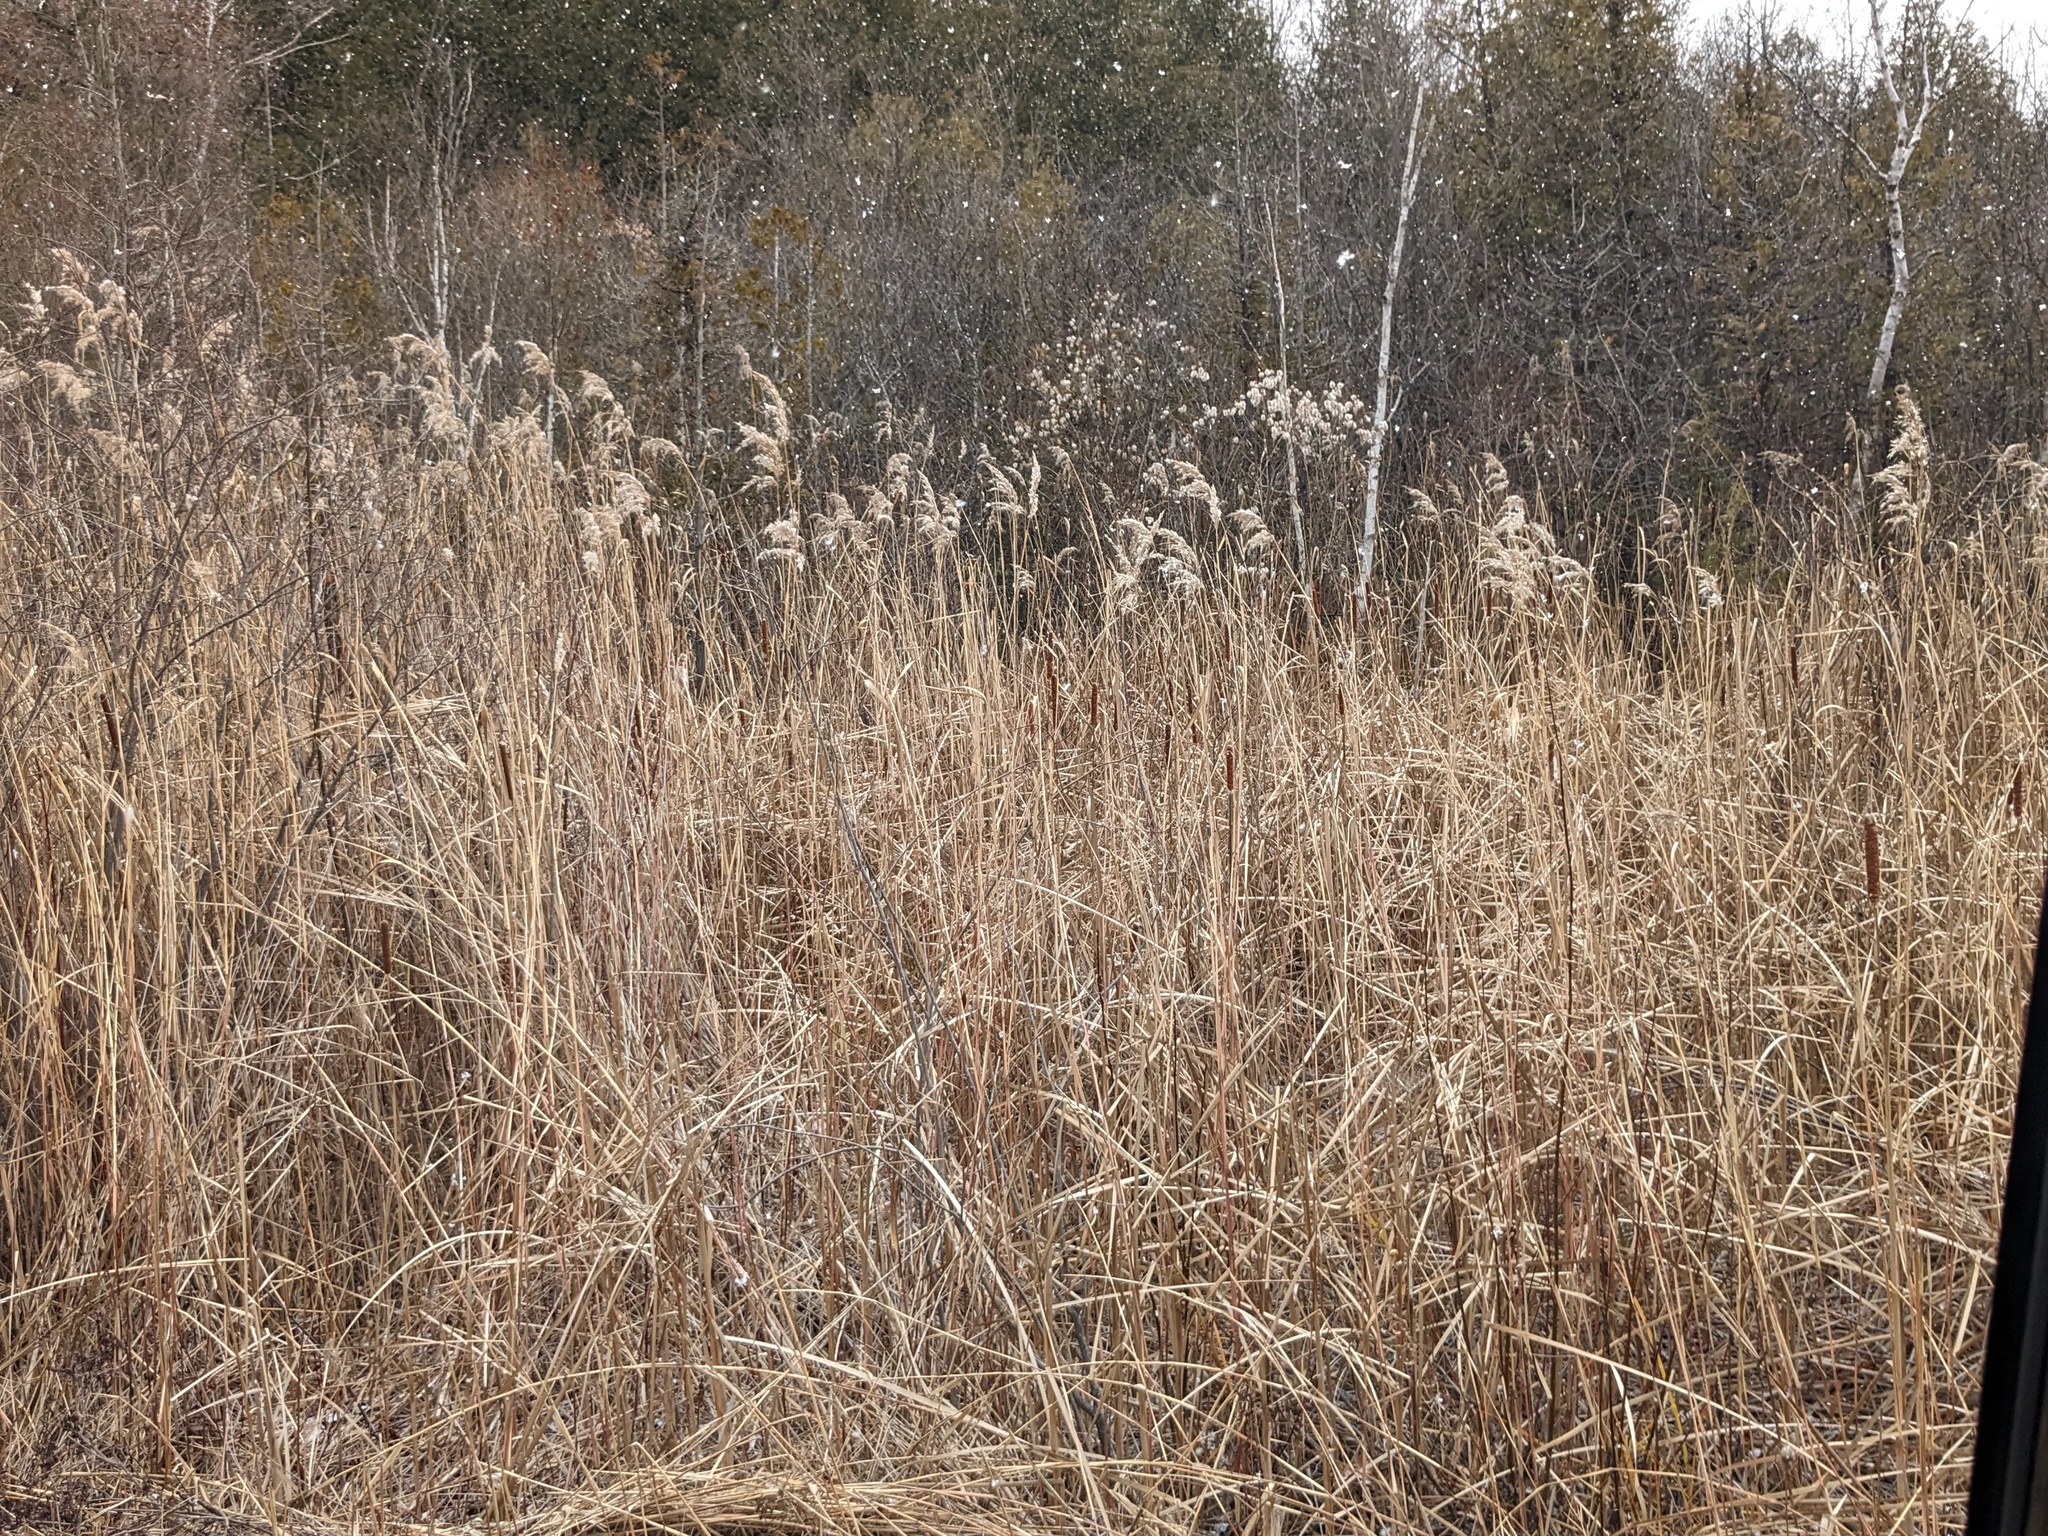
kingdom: Plantae
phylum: Tracheophyta
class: Liliopsida
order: Poales
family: Poaceae
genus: Phragmites
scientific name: Phragmites australis
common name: Common reed
